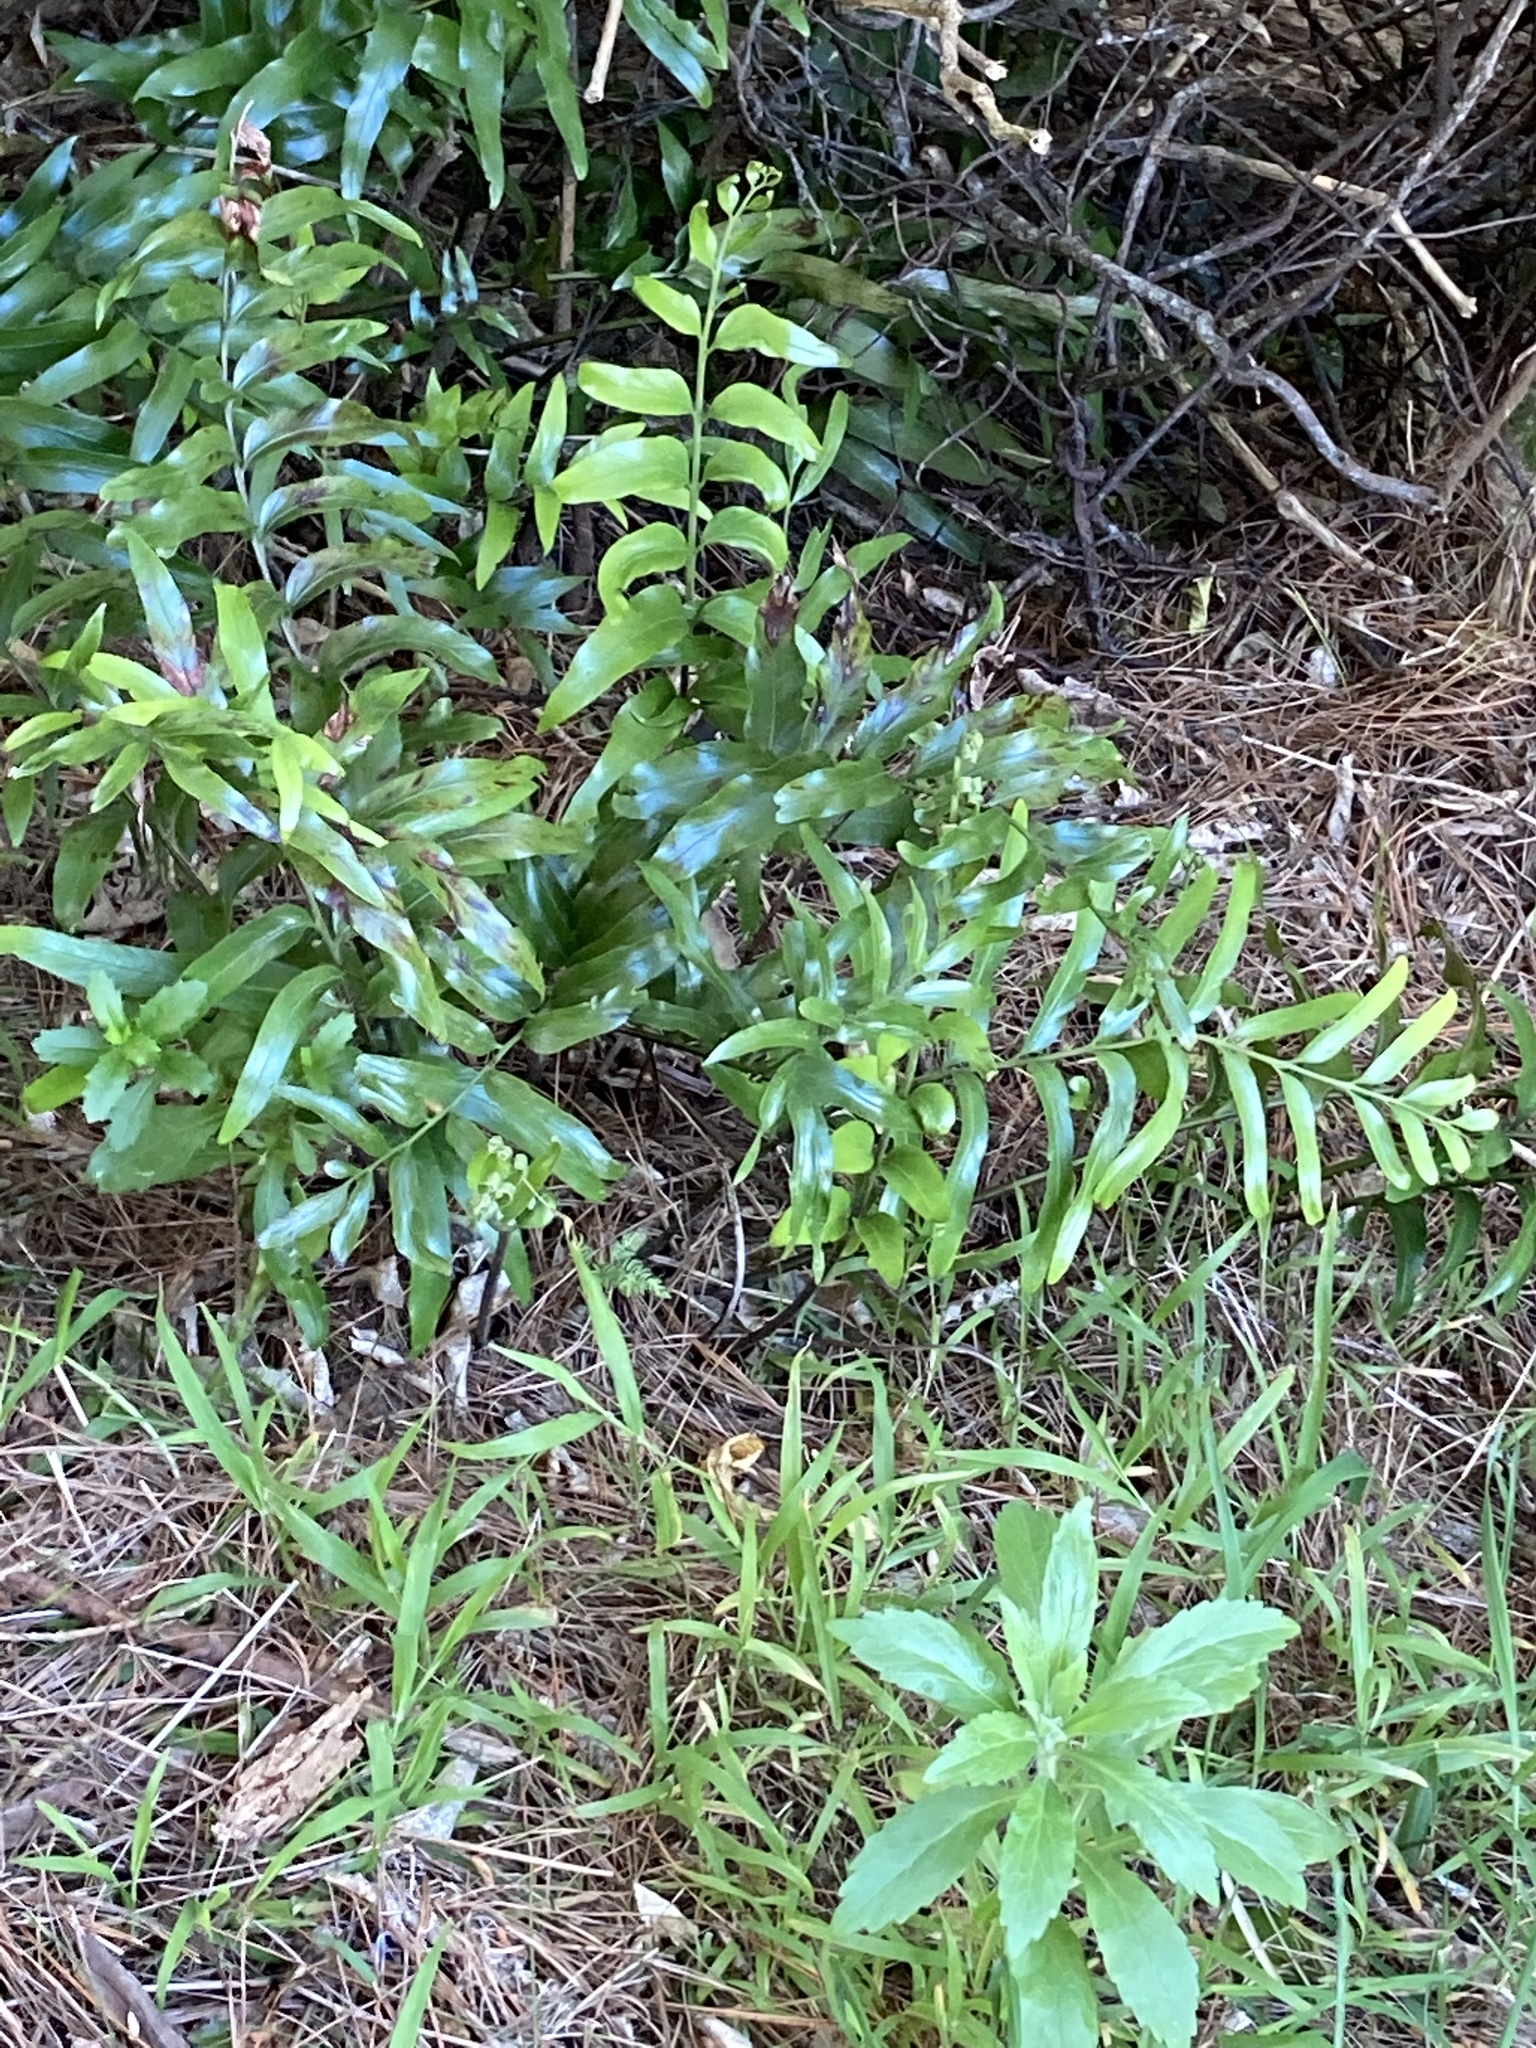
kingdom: Plantae
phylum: Tracheophyta
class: Polypodiopsida
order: Polypodiales
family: Aspleniaceae
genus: Asplenium
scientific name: Asplenium oblongifolium
